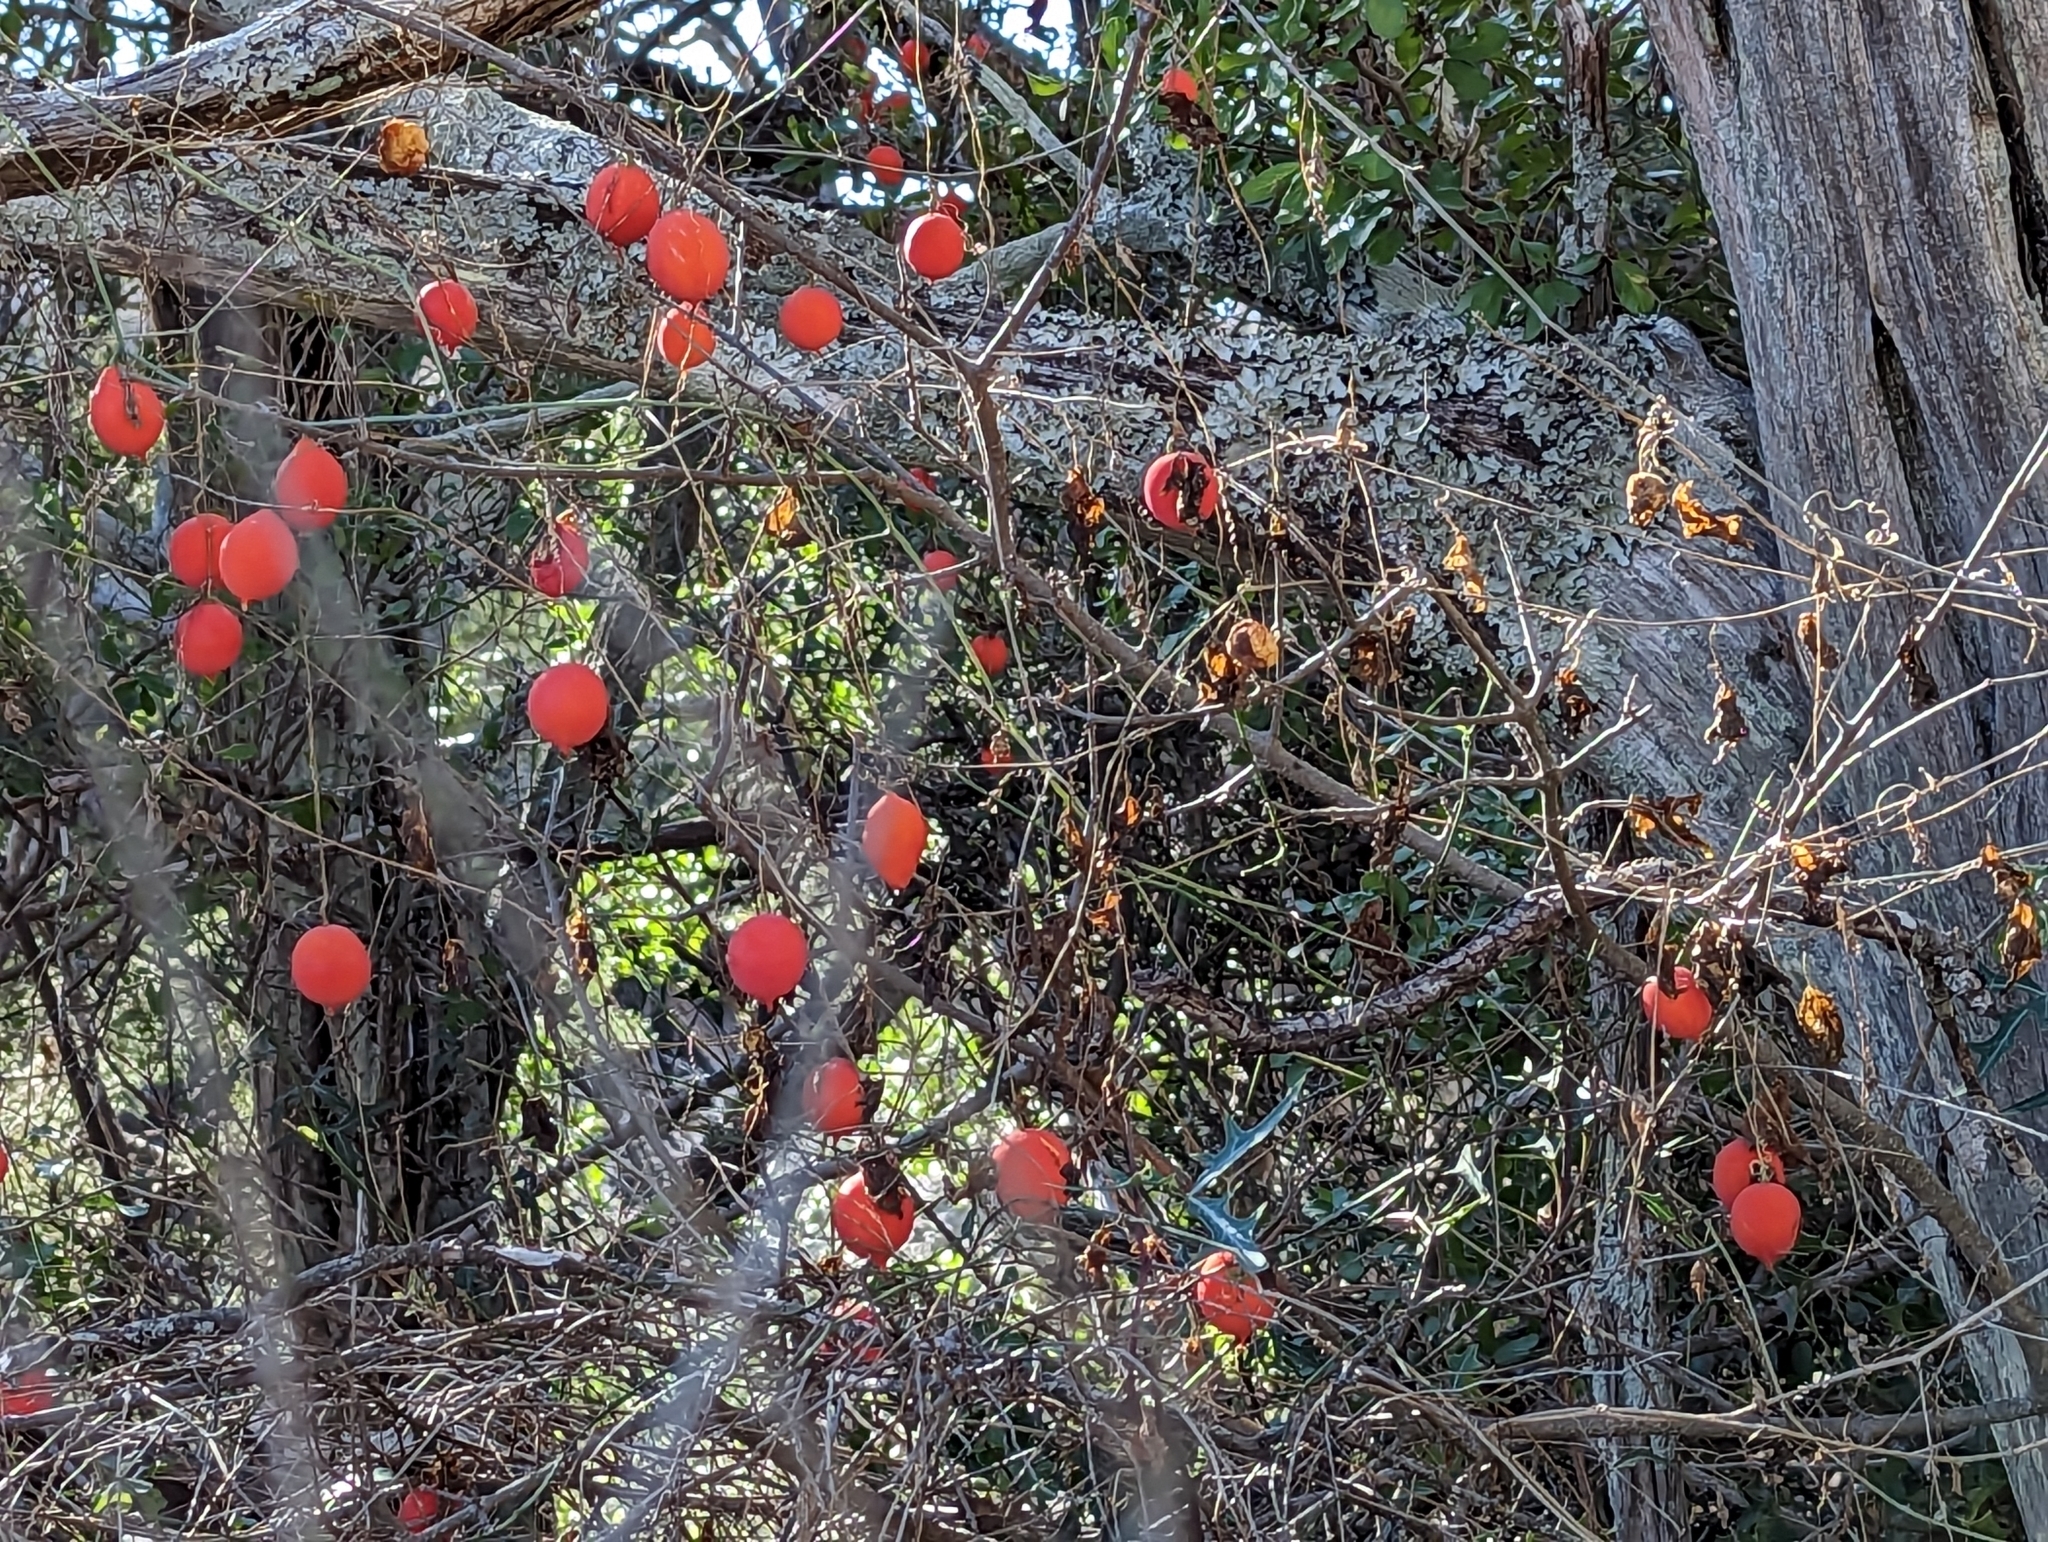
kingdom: Plantae
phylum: Tracheophyta
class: Magnoliopsida
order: Cucurbitales
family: Cucurbitaceae
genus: Ibervillea
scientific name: Ibervillea lindheimeri
